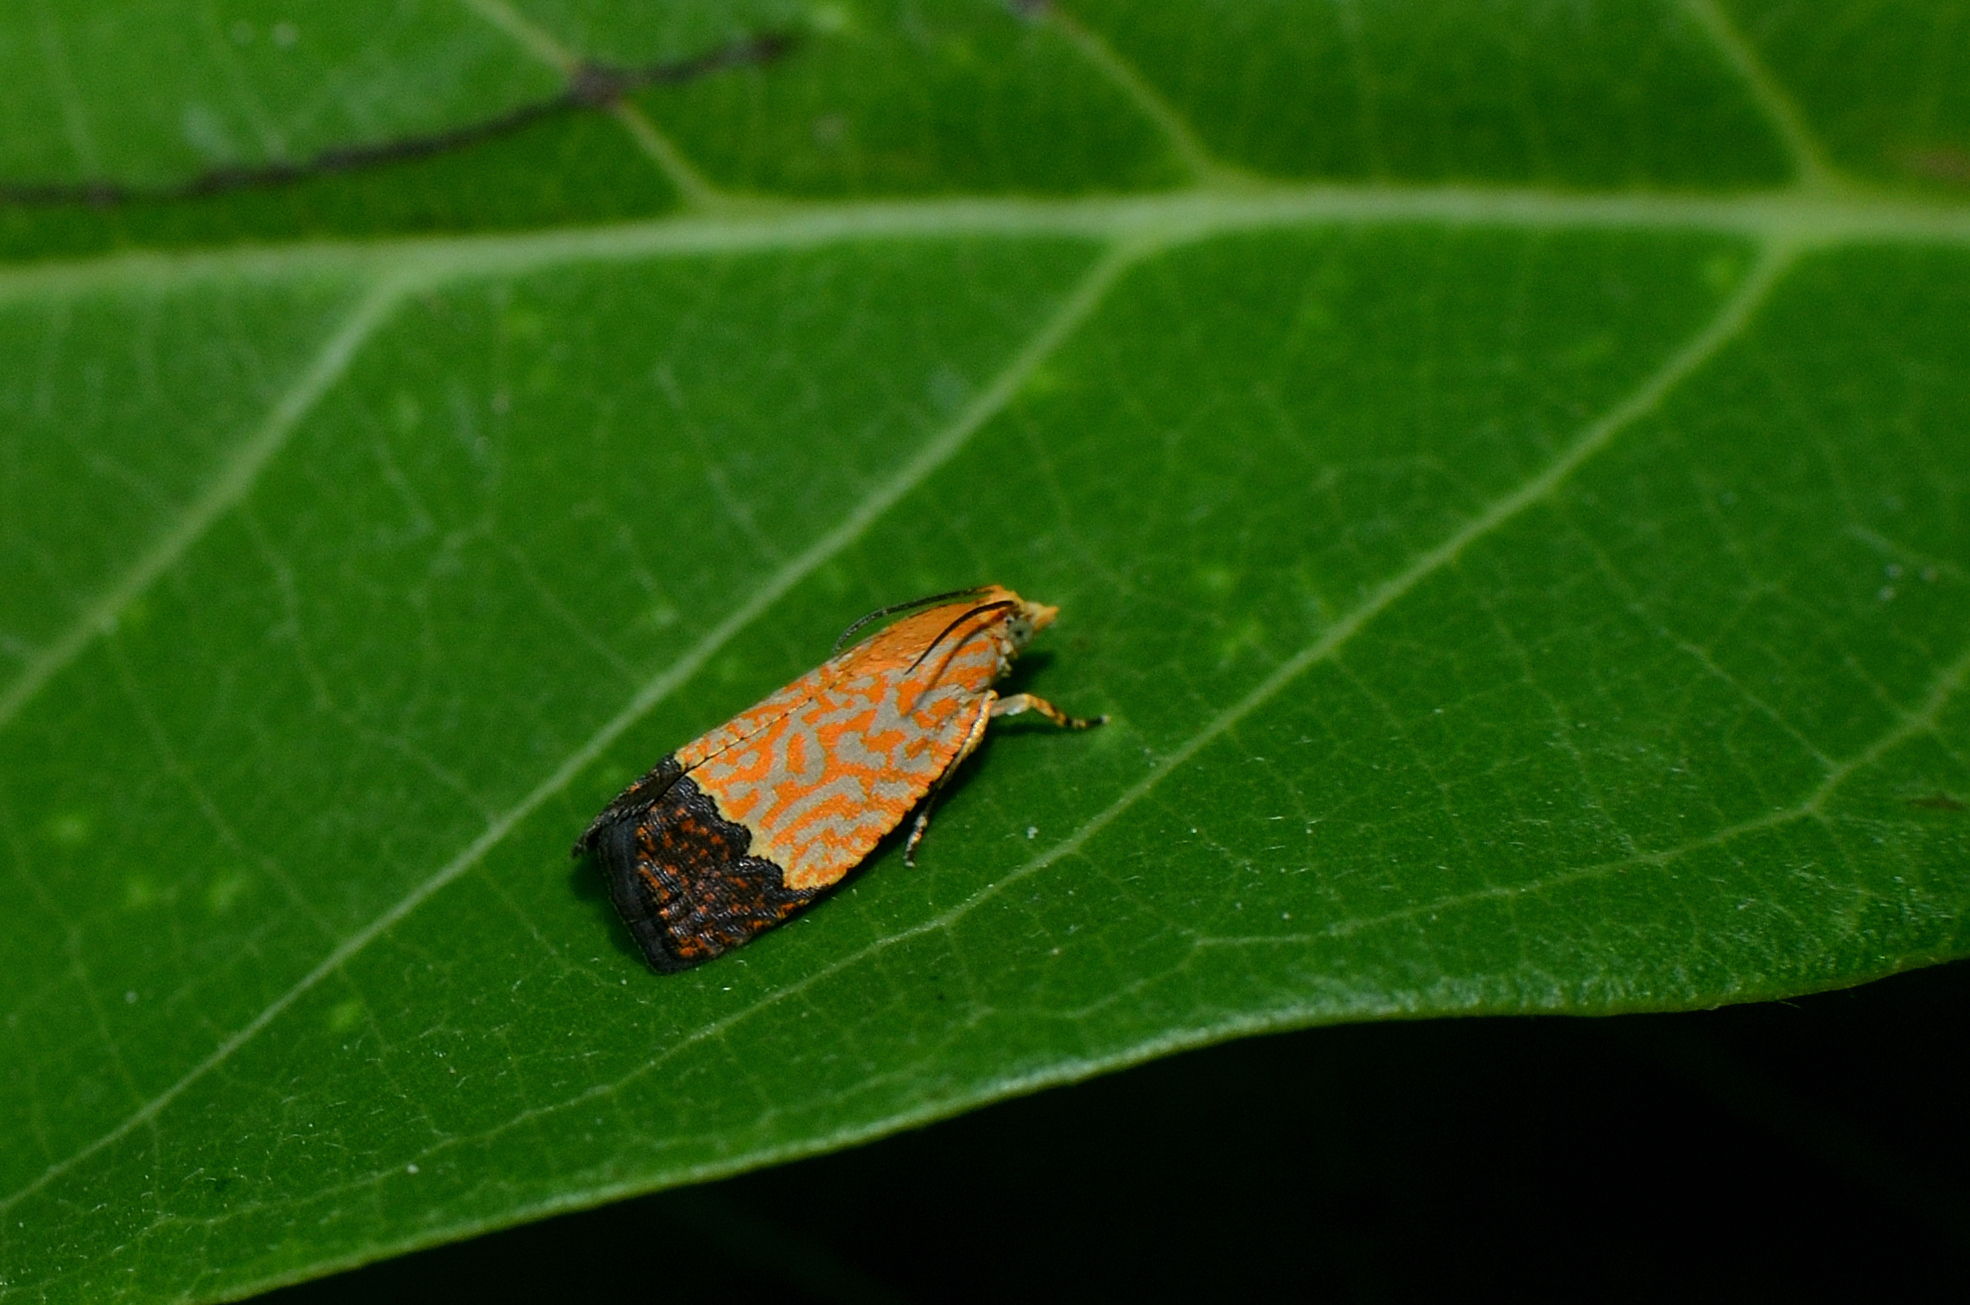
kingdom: Animalia
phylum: Arthropoda
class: Insecta
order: Lepidoptera
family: Tortricidae
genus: Loboschiza
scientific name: Loboschiza koenigiana
